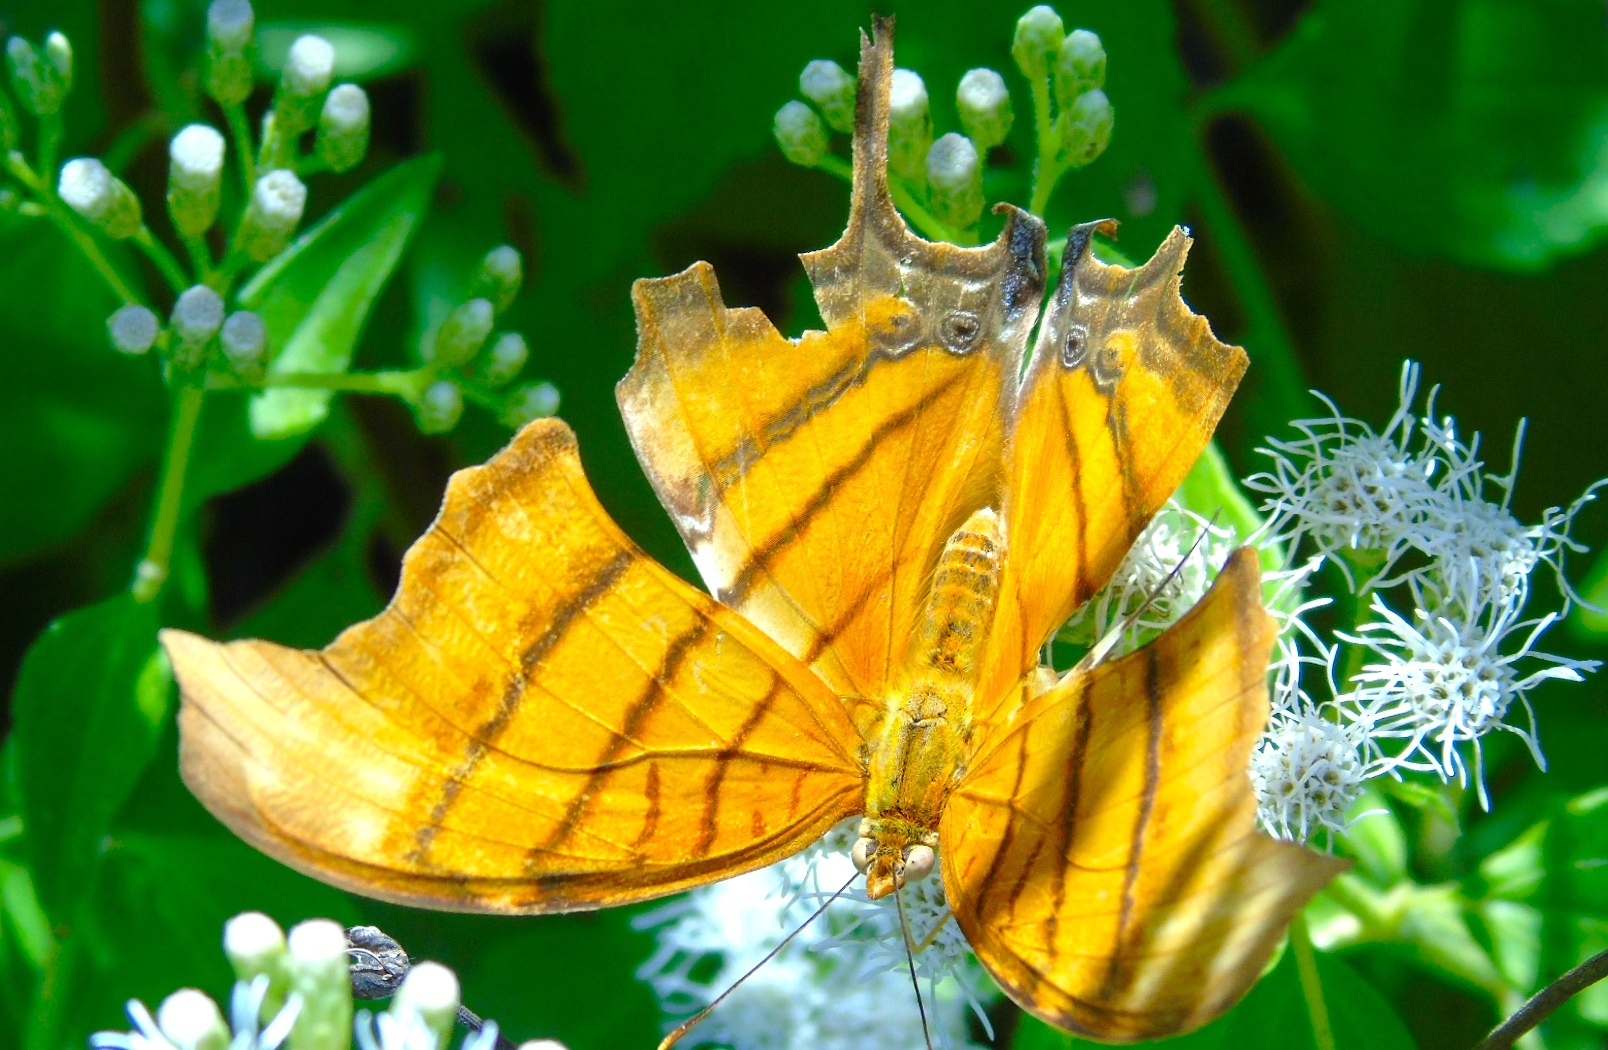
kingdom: Animalia
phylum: Arthropoda
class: Insecta
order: Lepidoptera
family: Nymphalidae
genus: Marpesia
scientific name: Marpesia petreus
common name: Red dagger wing
